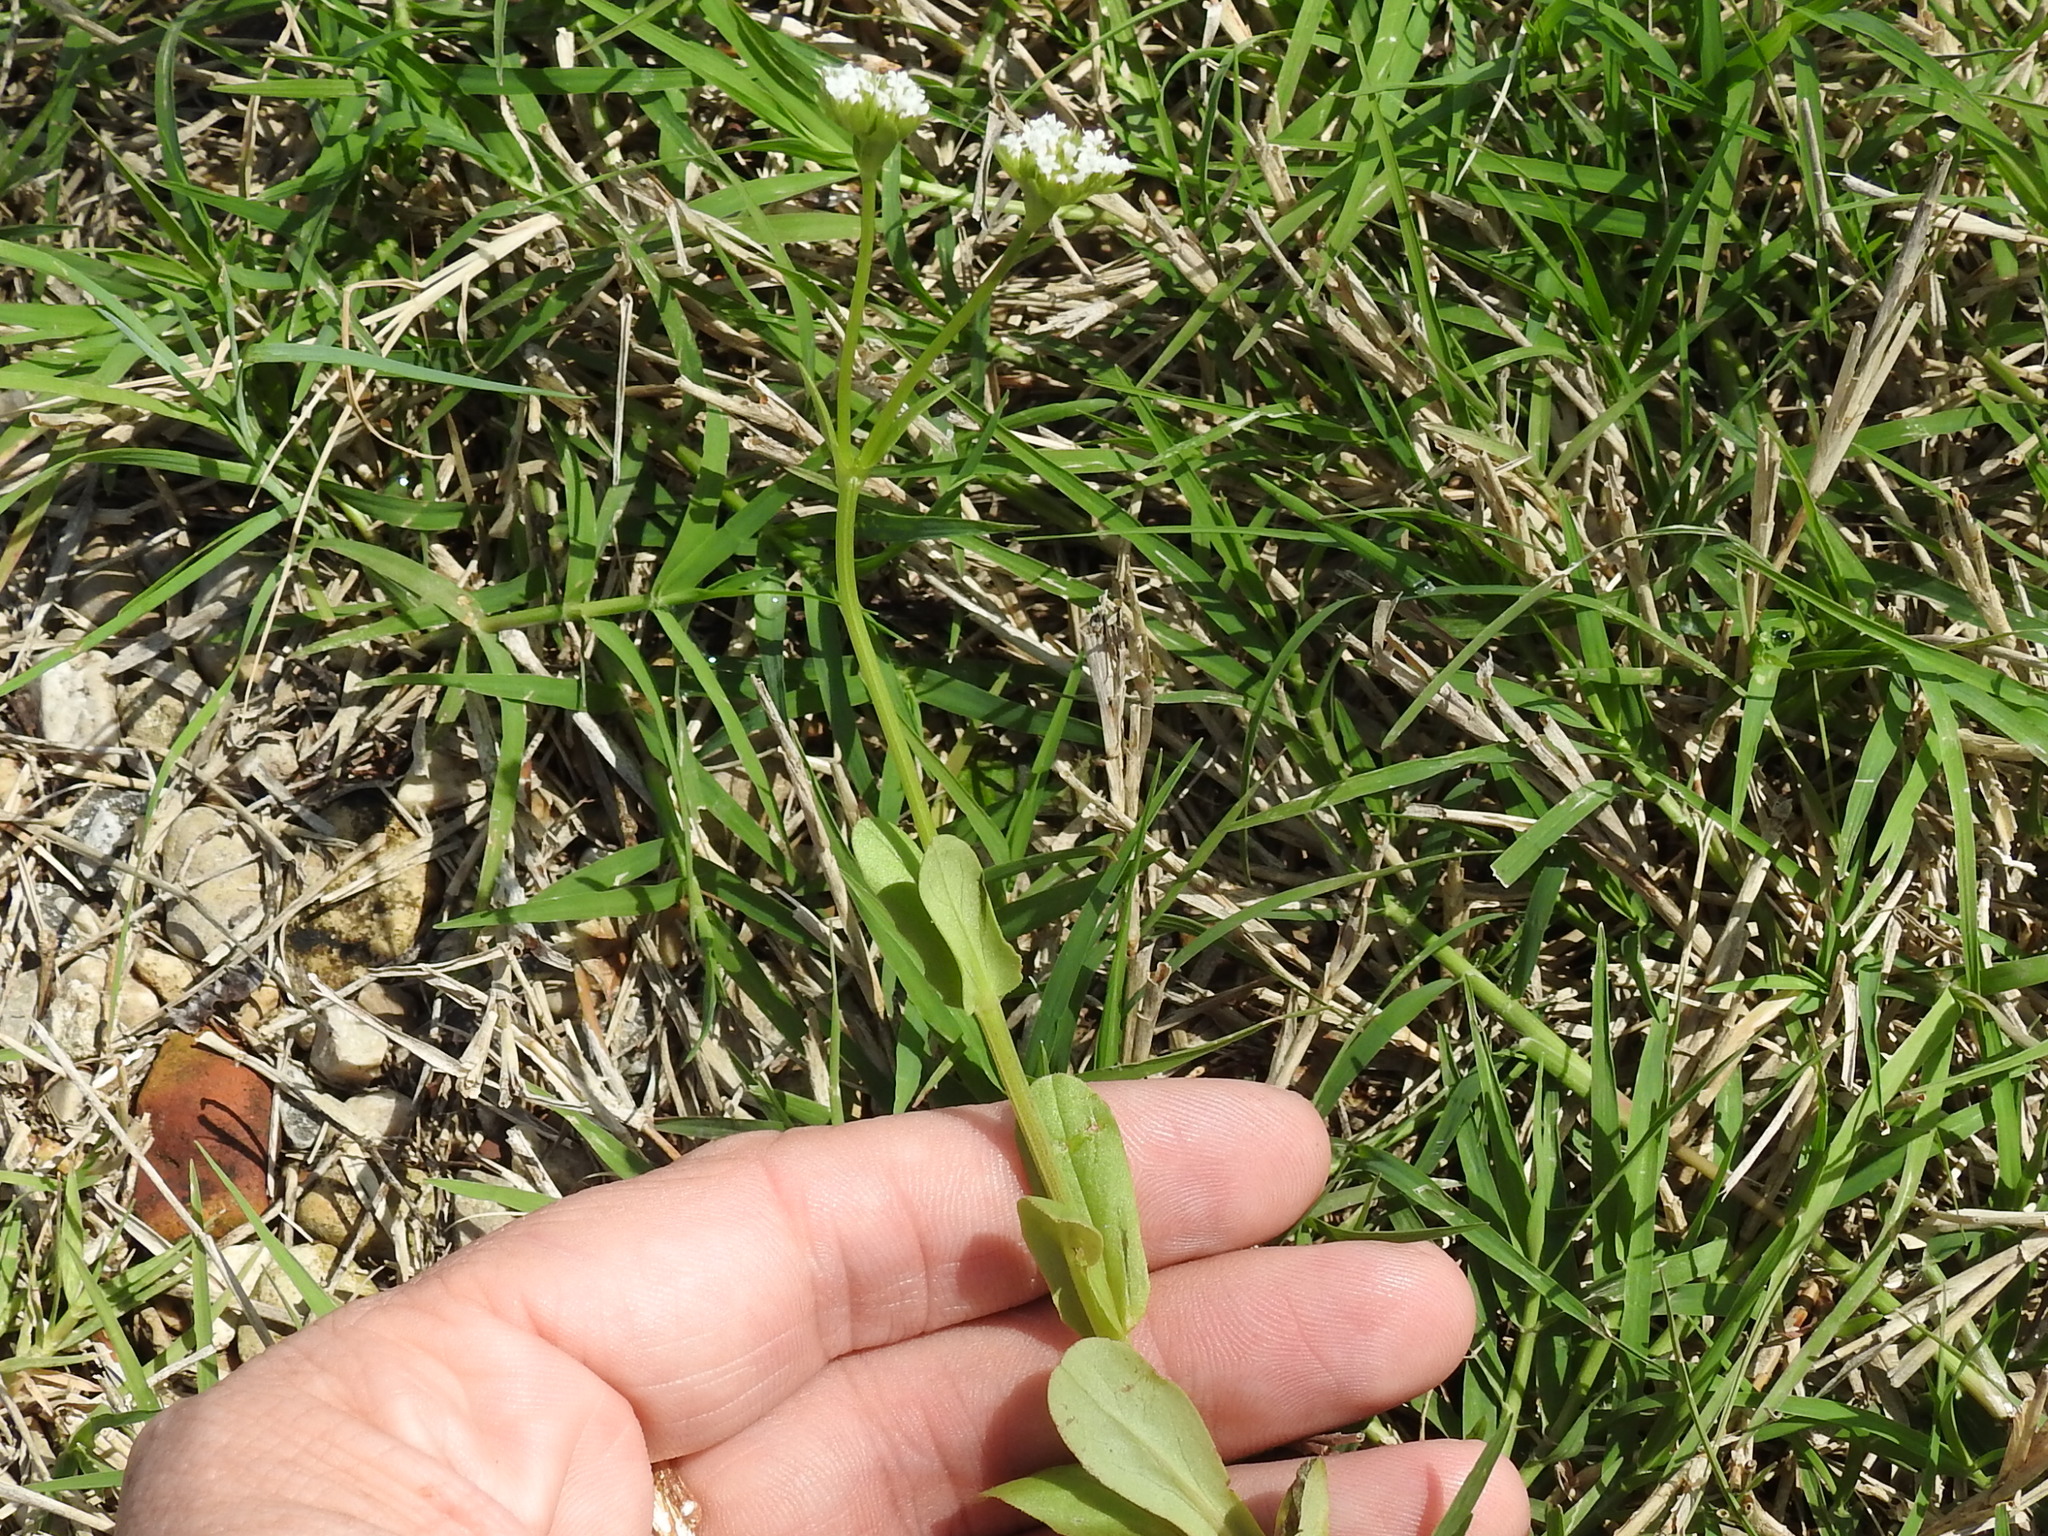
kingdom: Plantae
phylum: Tracheophyta
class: Magnoliopsida
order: Dipsacales
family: Caprifoliaceae
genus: Valerianella
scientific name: Valerianella radiata
